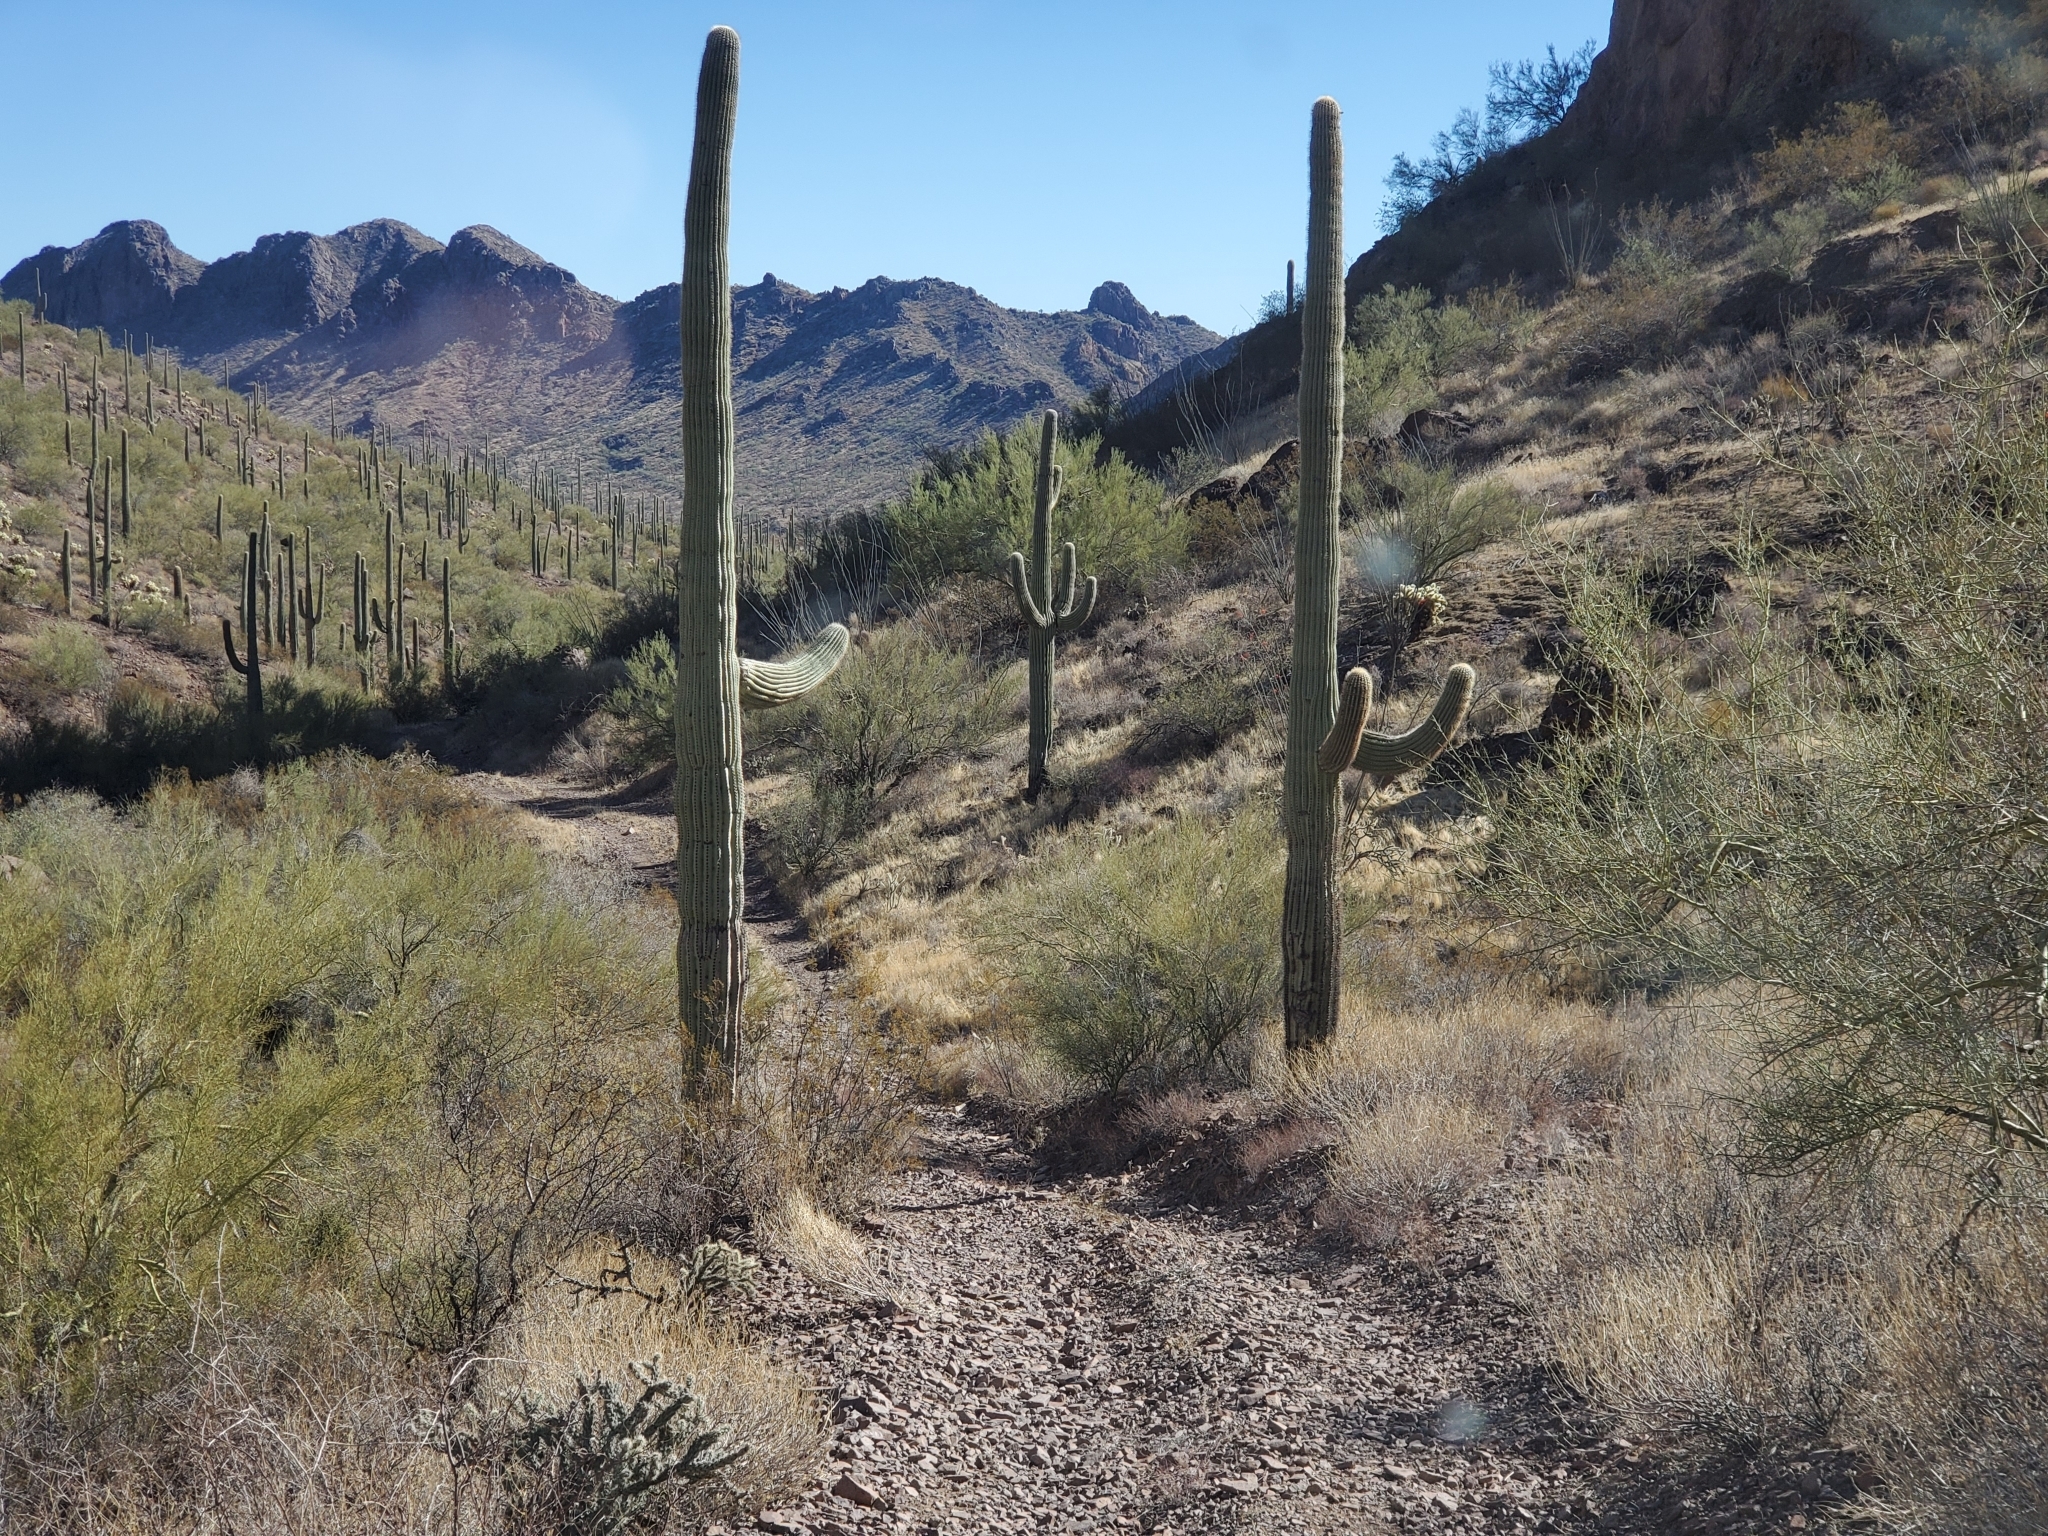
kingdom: Plantae
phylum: Tracheophyta
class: Magnoliopsida
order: Caryophyllales
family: Cactaceae
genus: Carnegiea
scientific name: Carnegiea gigantea
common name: Saguaro
